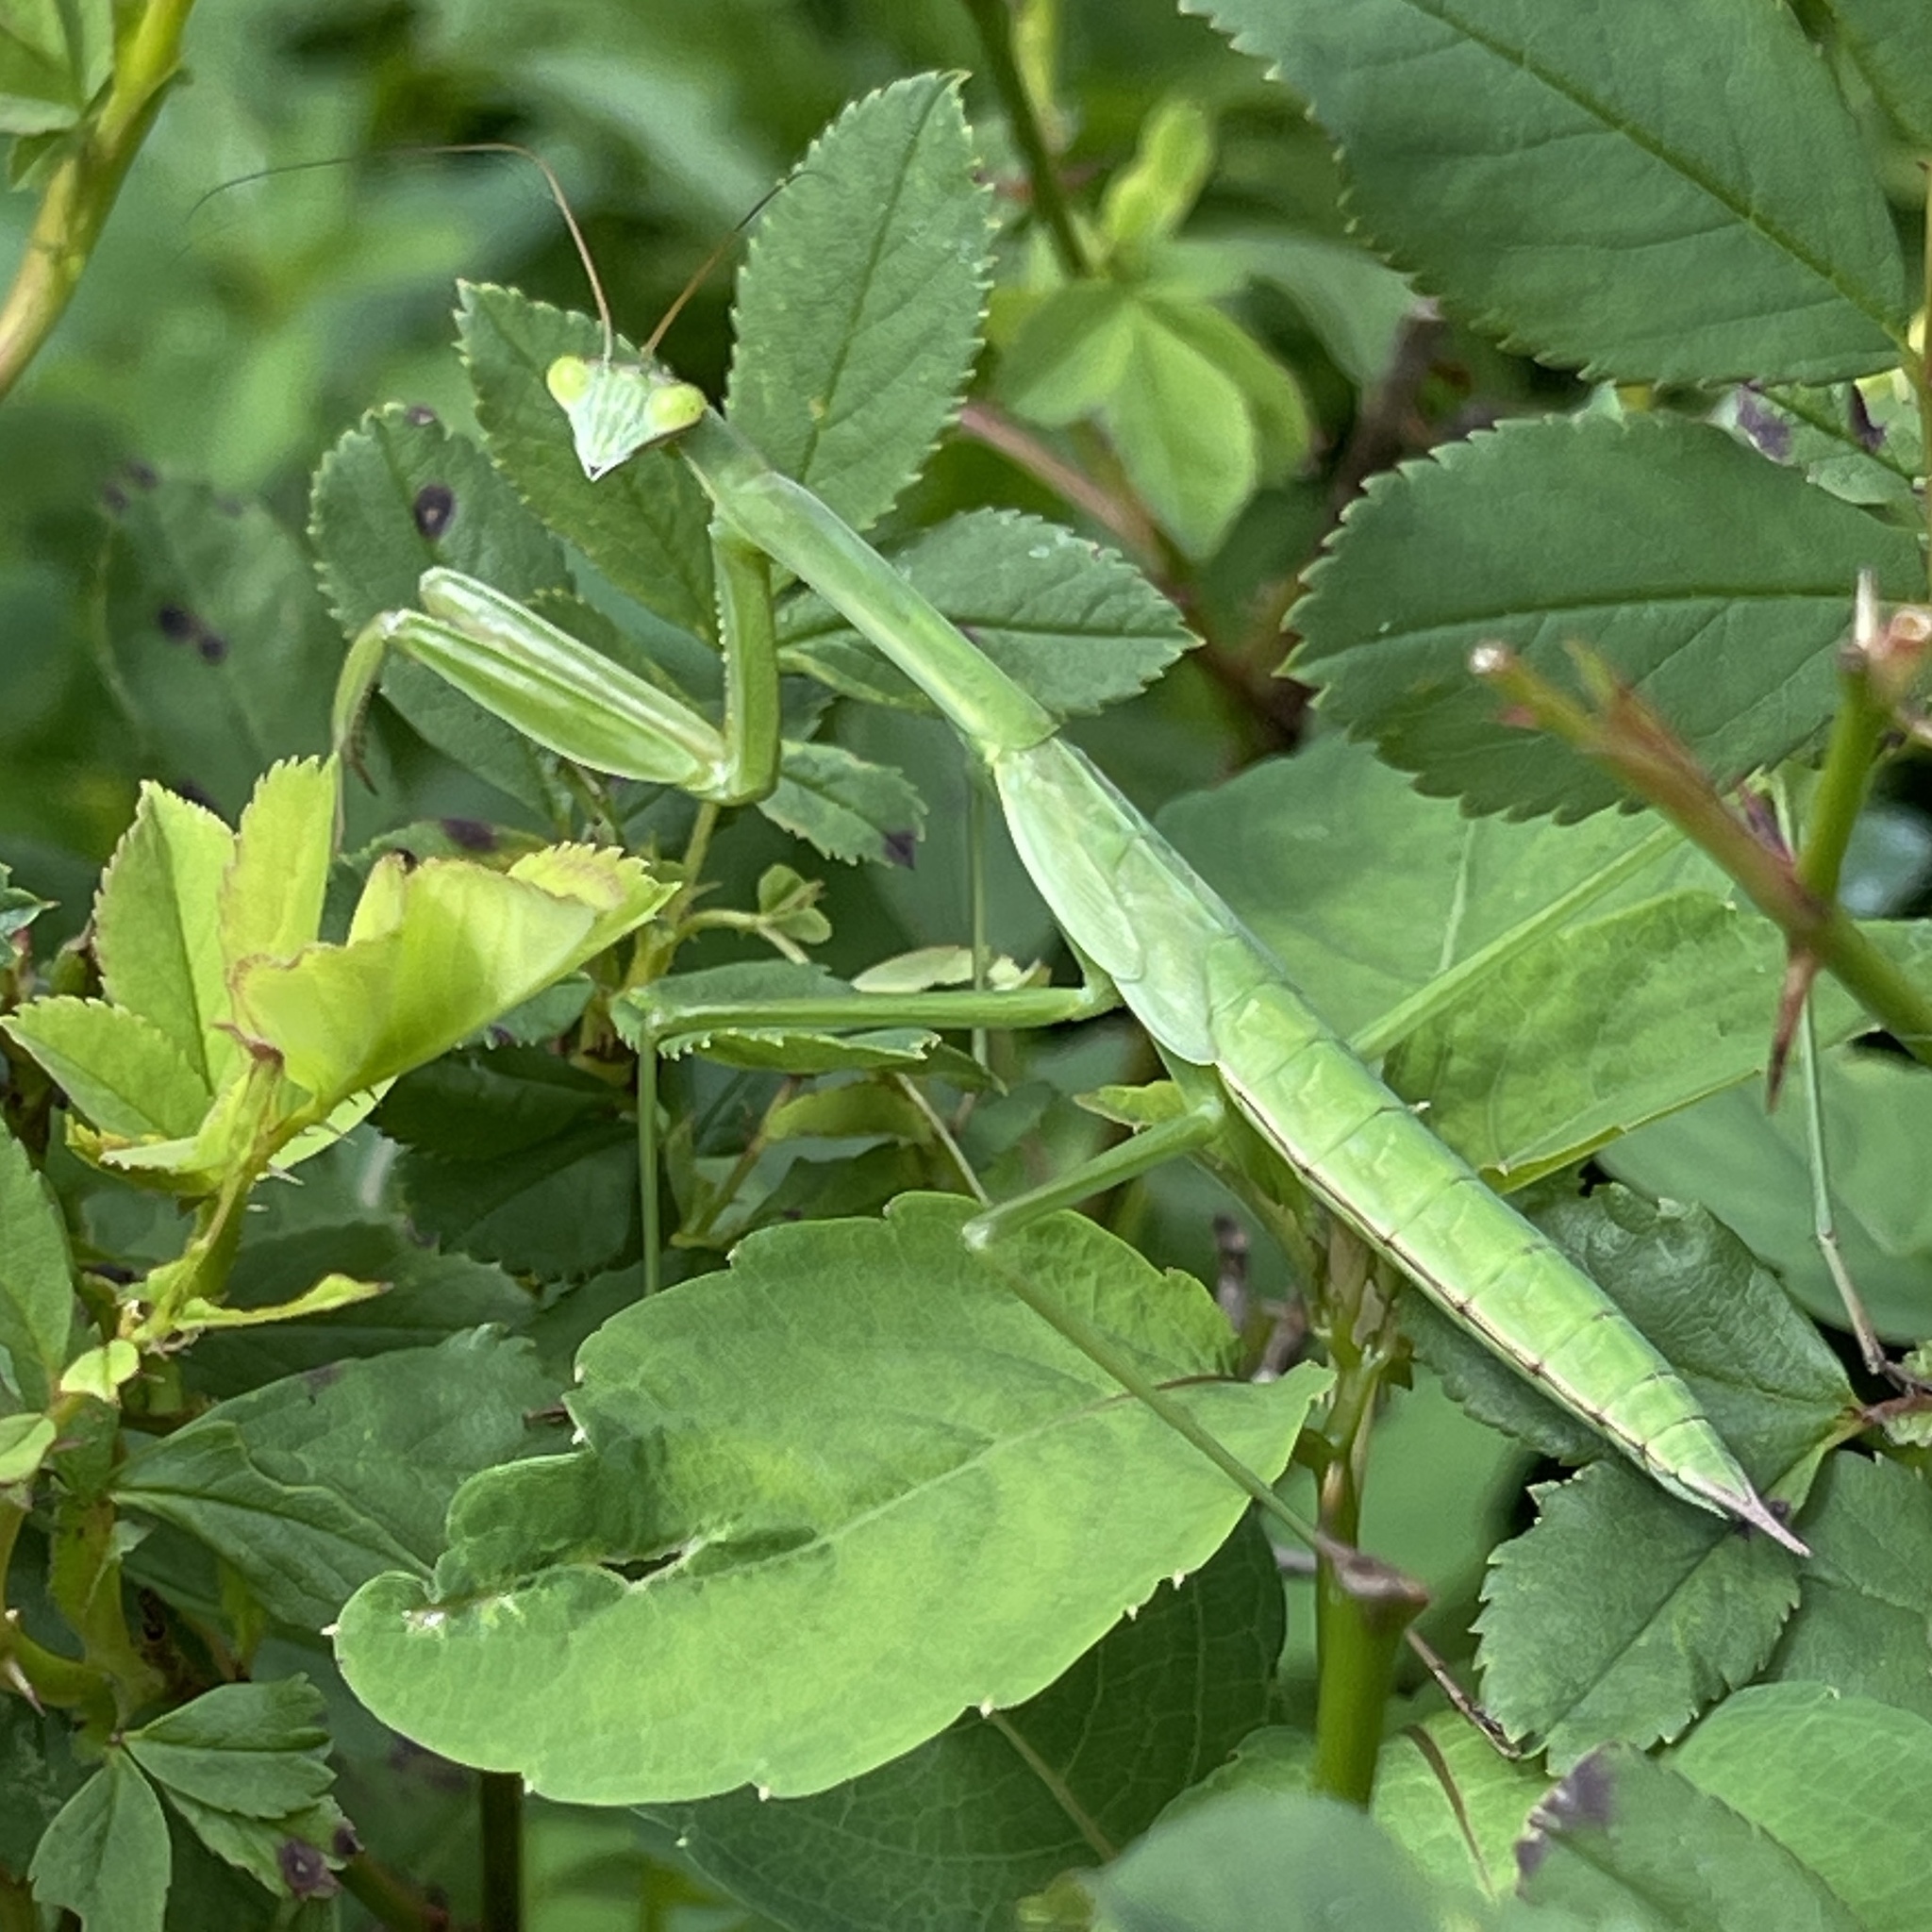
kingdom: Animalia
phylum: Arthropoda
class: Insecta
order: Mantodea
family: Mantidae
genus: Tenodera
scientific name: Tenodera sinensis
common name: Chinese mantis
